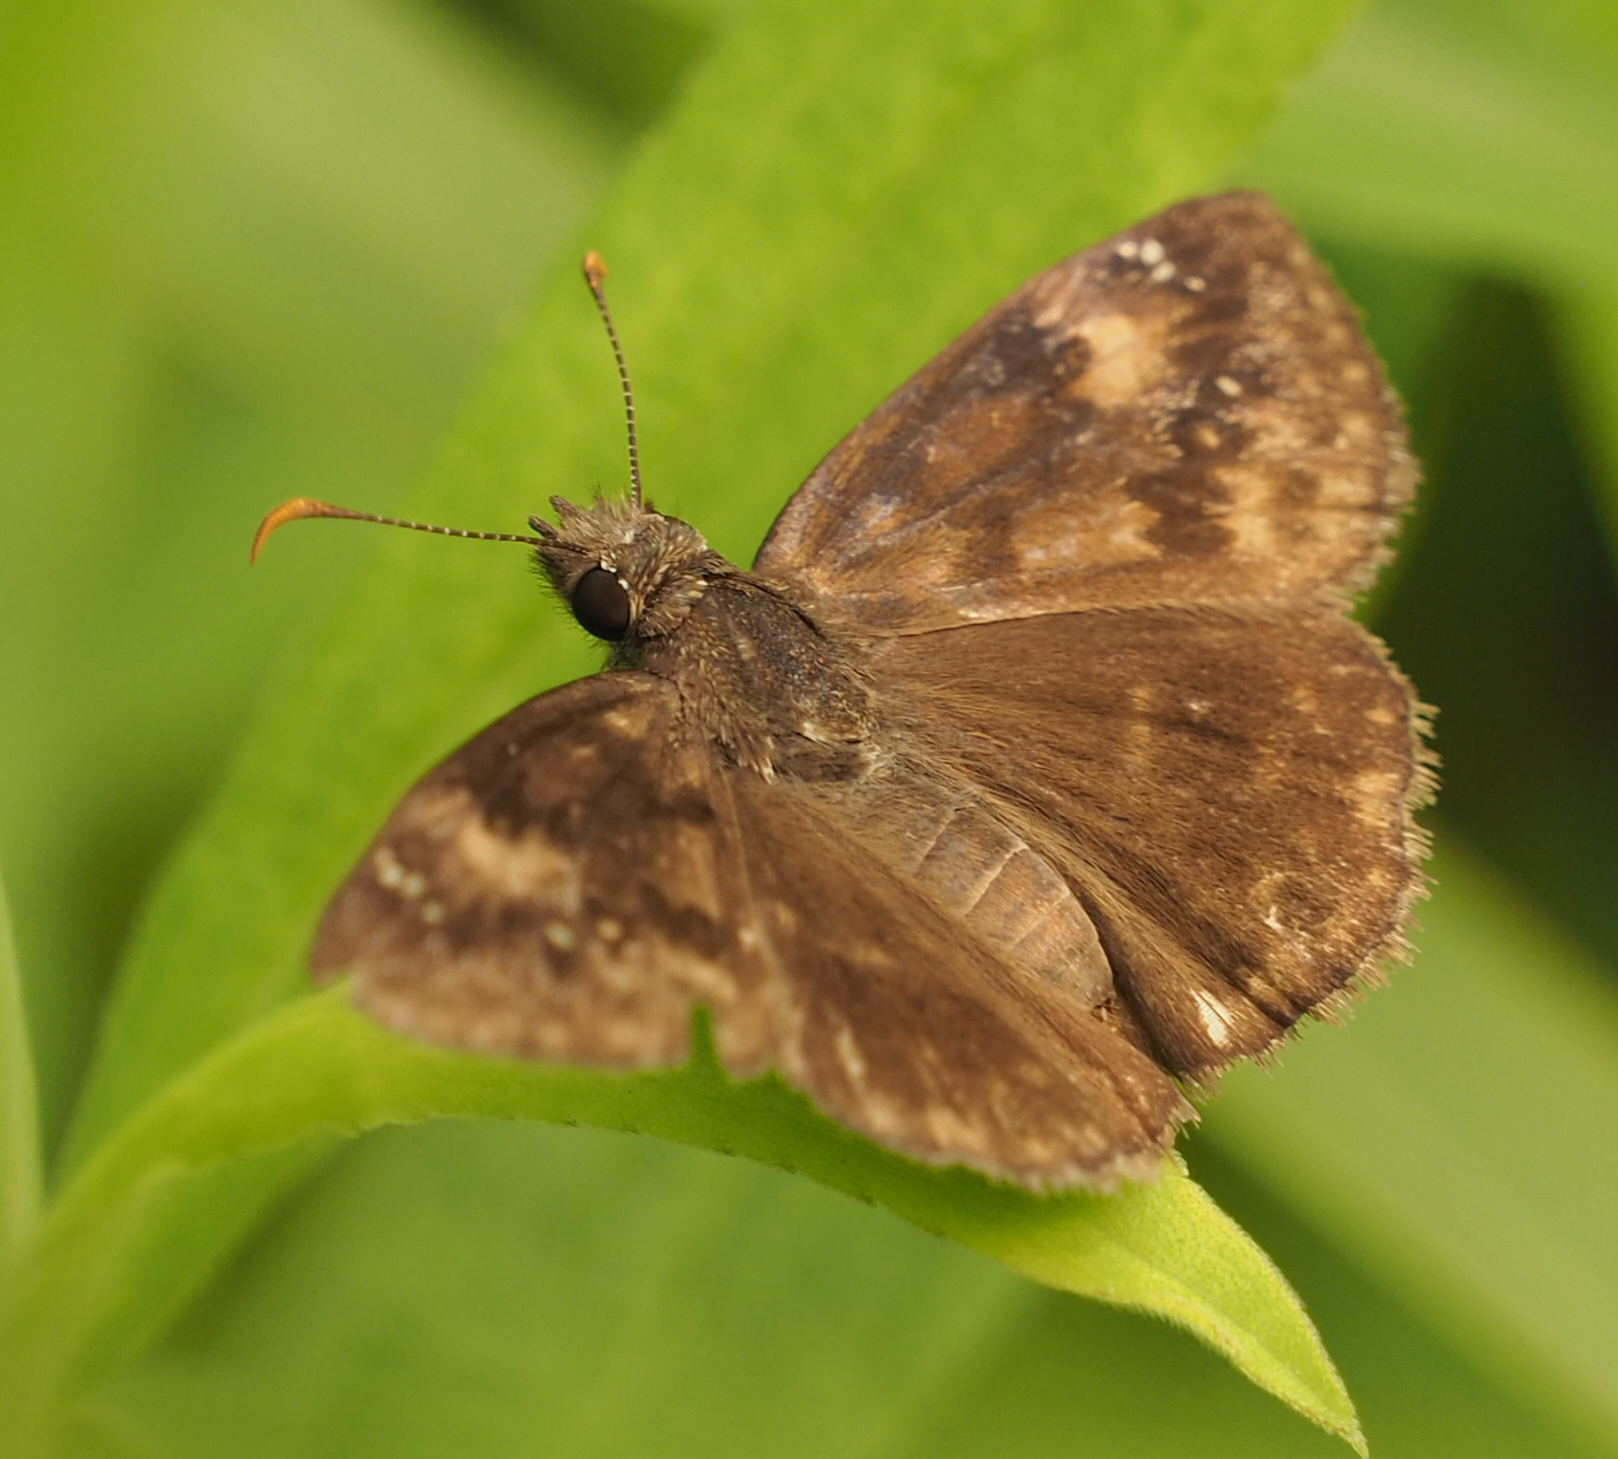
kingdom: Animalia
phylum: Arthropoda
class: Insecta
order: Lepidoptera
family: Hesperiidae
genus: Erynnis
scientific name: Erynnis baptisiae
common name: Wild indigo duskywing
